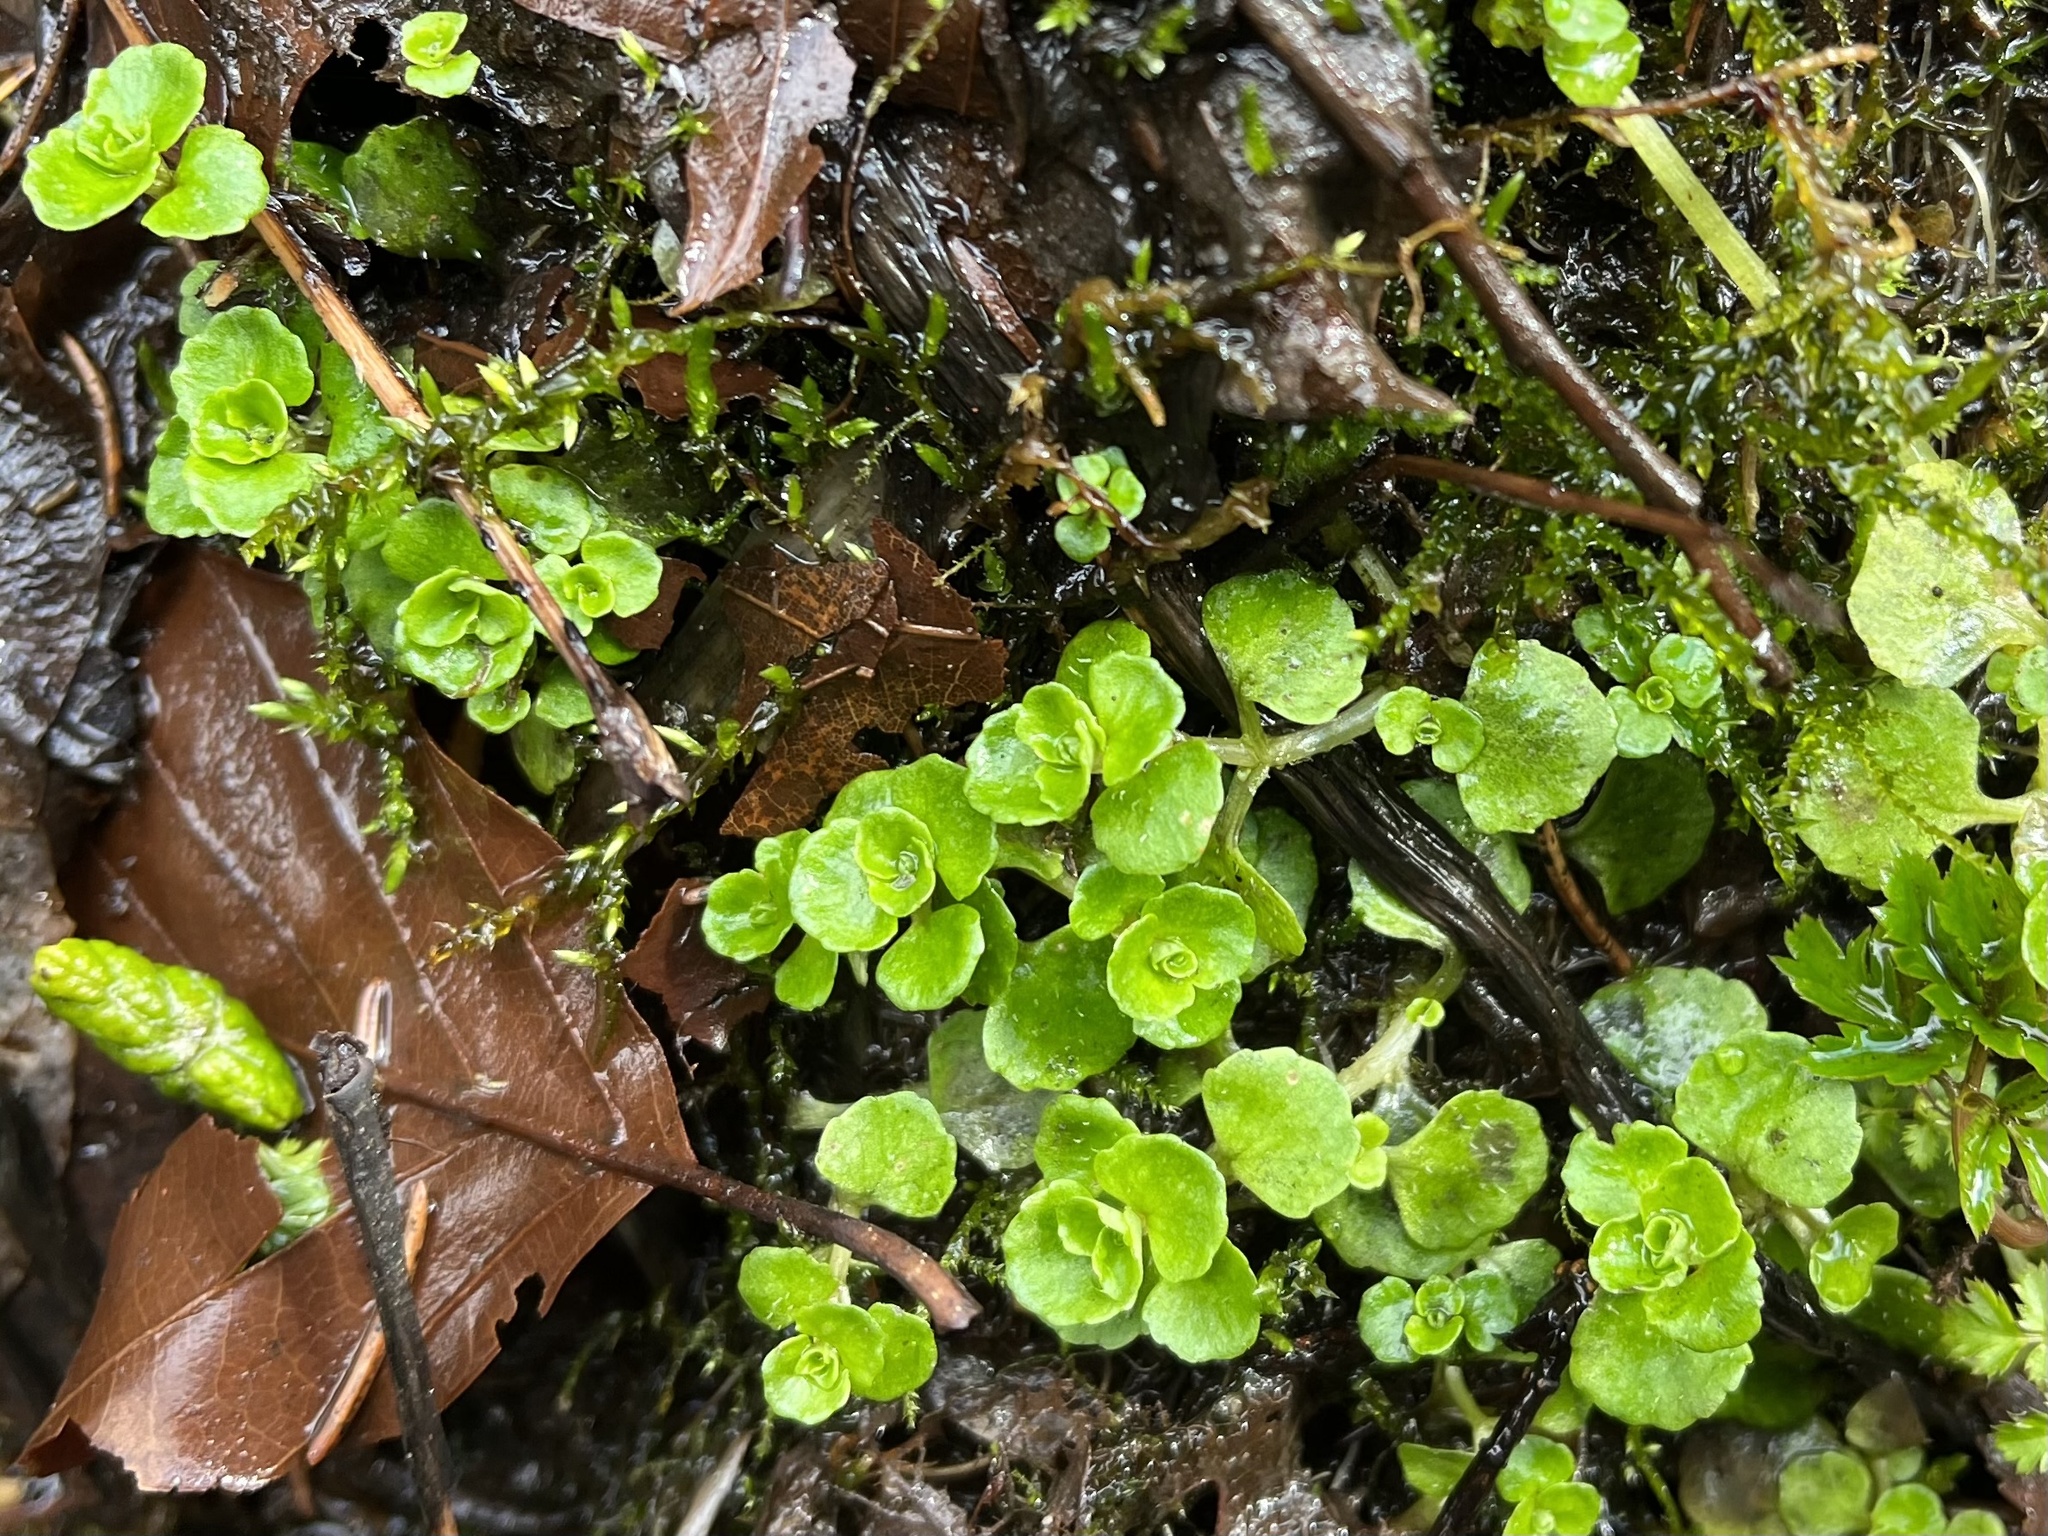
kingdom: Plantae
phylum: Tracheophyta
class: Magnoliopsida
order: Saxifragales
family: Saxifragaceae
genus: Chrysosplenium
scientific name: Chrysosplenium oppositifolium
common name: Opposite-leaved golden-saxifrage
